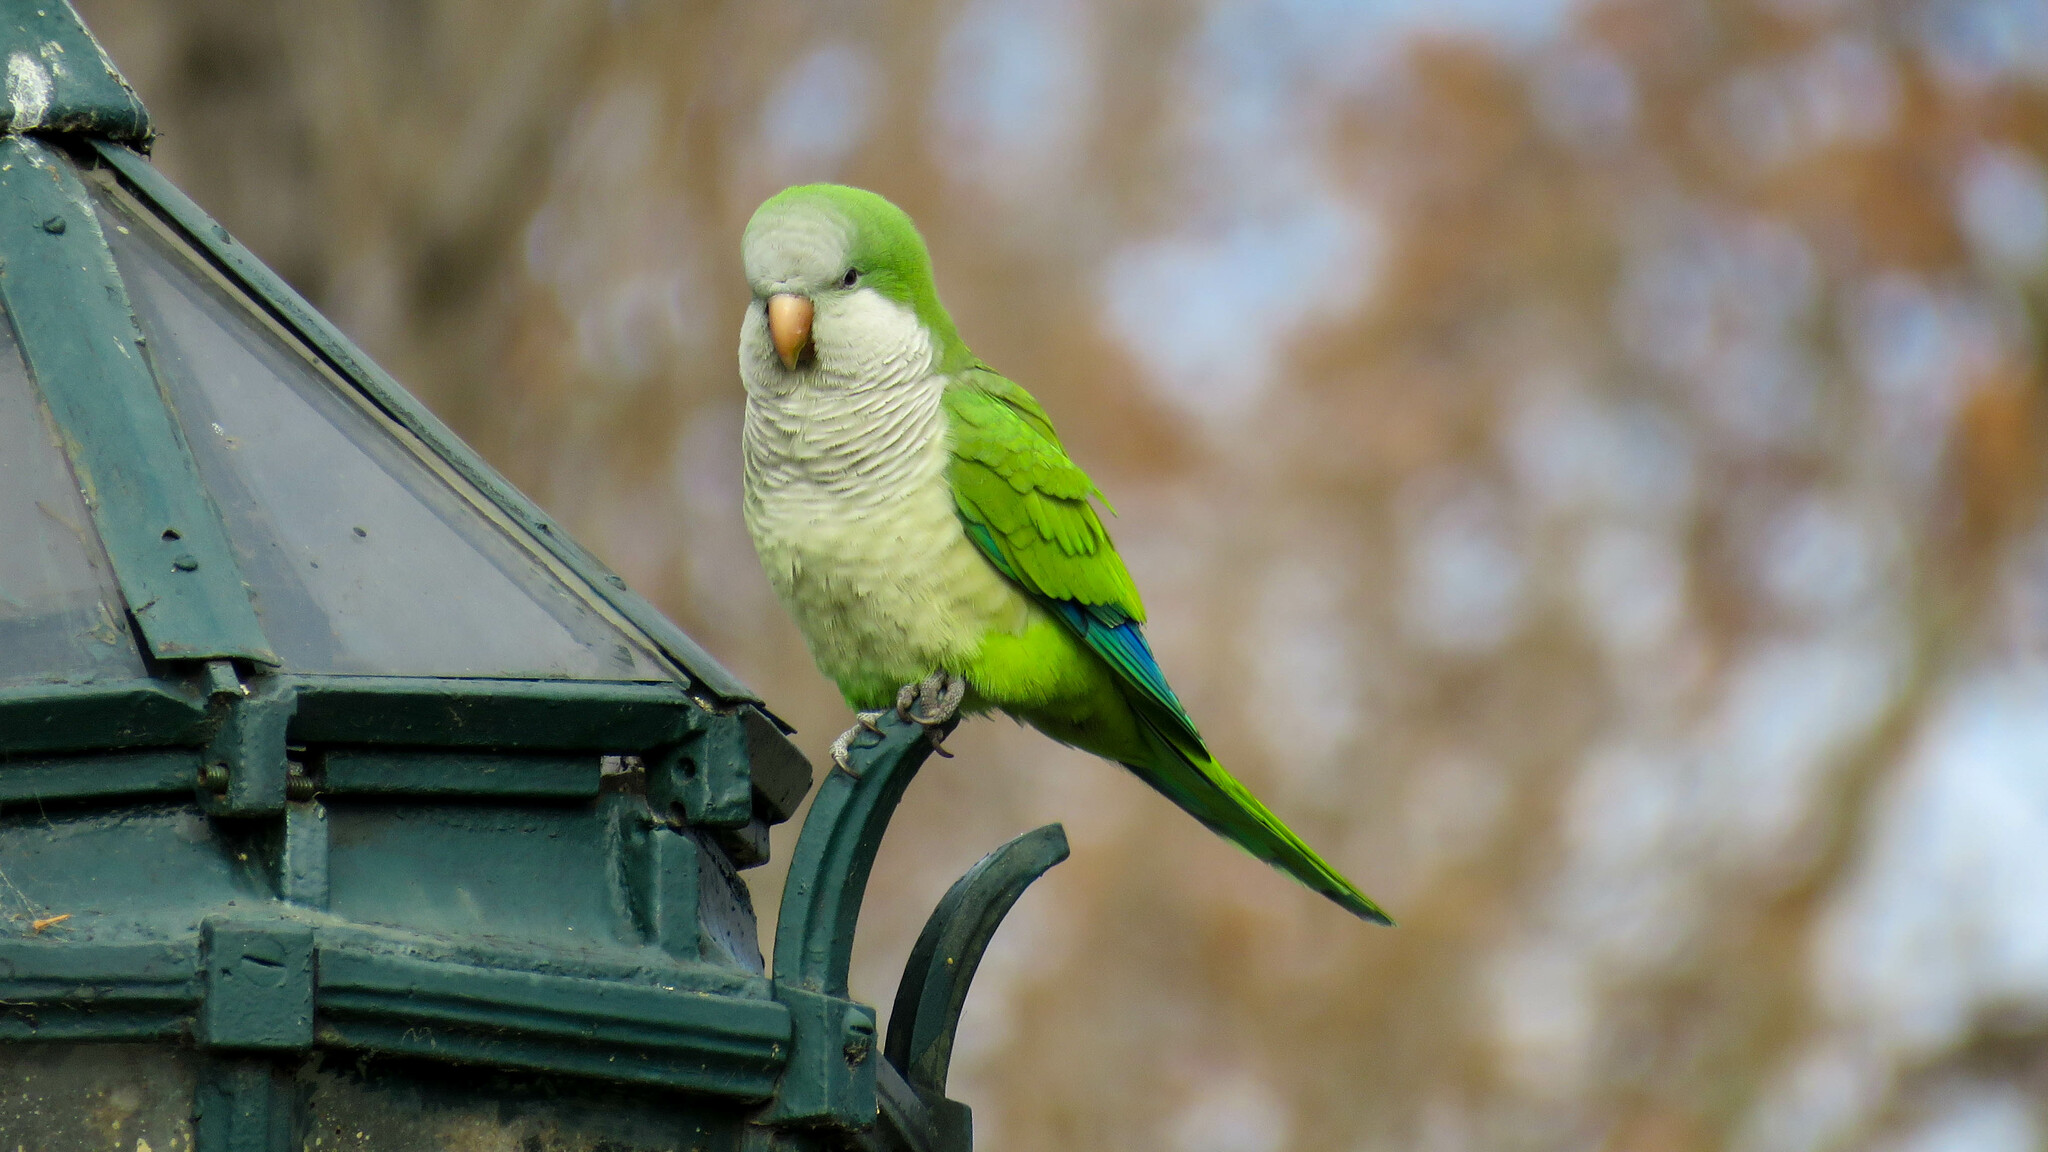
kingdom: Animalia
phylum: Chordata
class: Aves
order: Psittaciformes
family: Psittacidae
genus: Myiopsitta
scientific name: Myiopsitta monachus
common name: Monk parakeet
